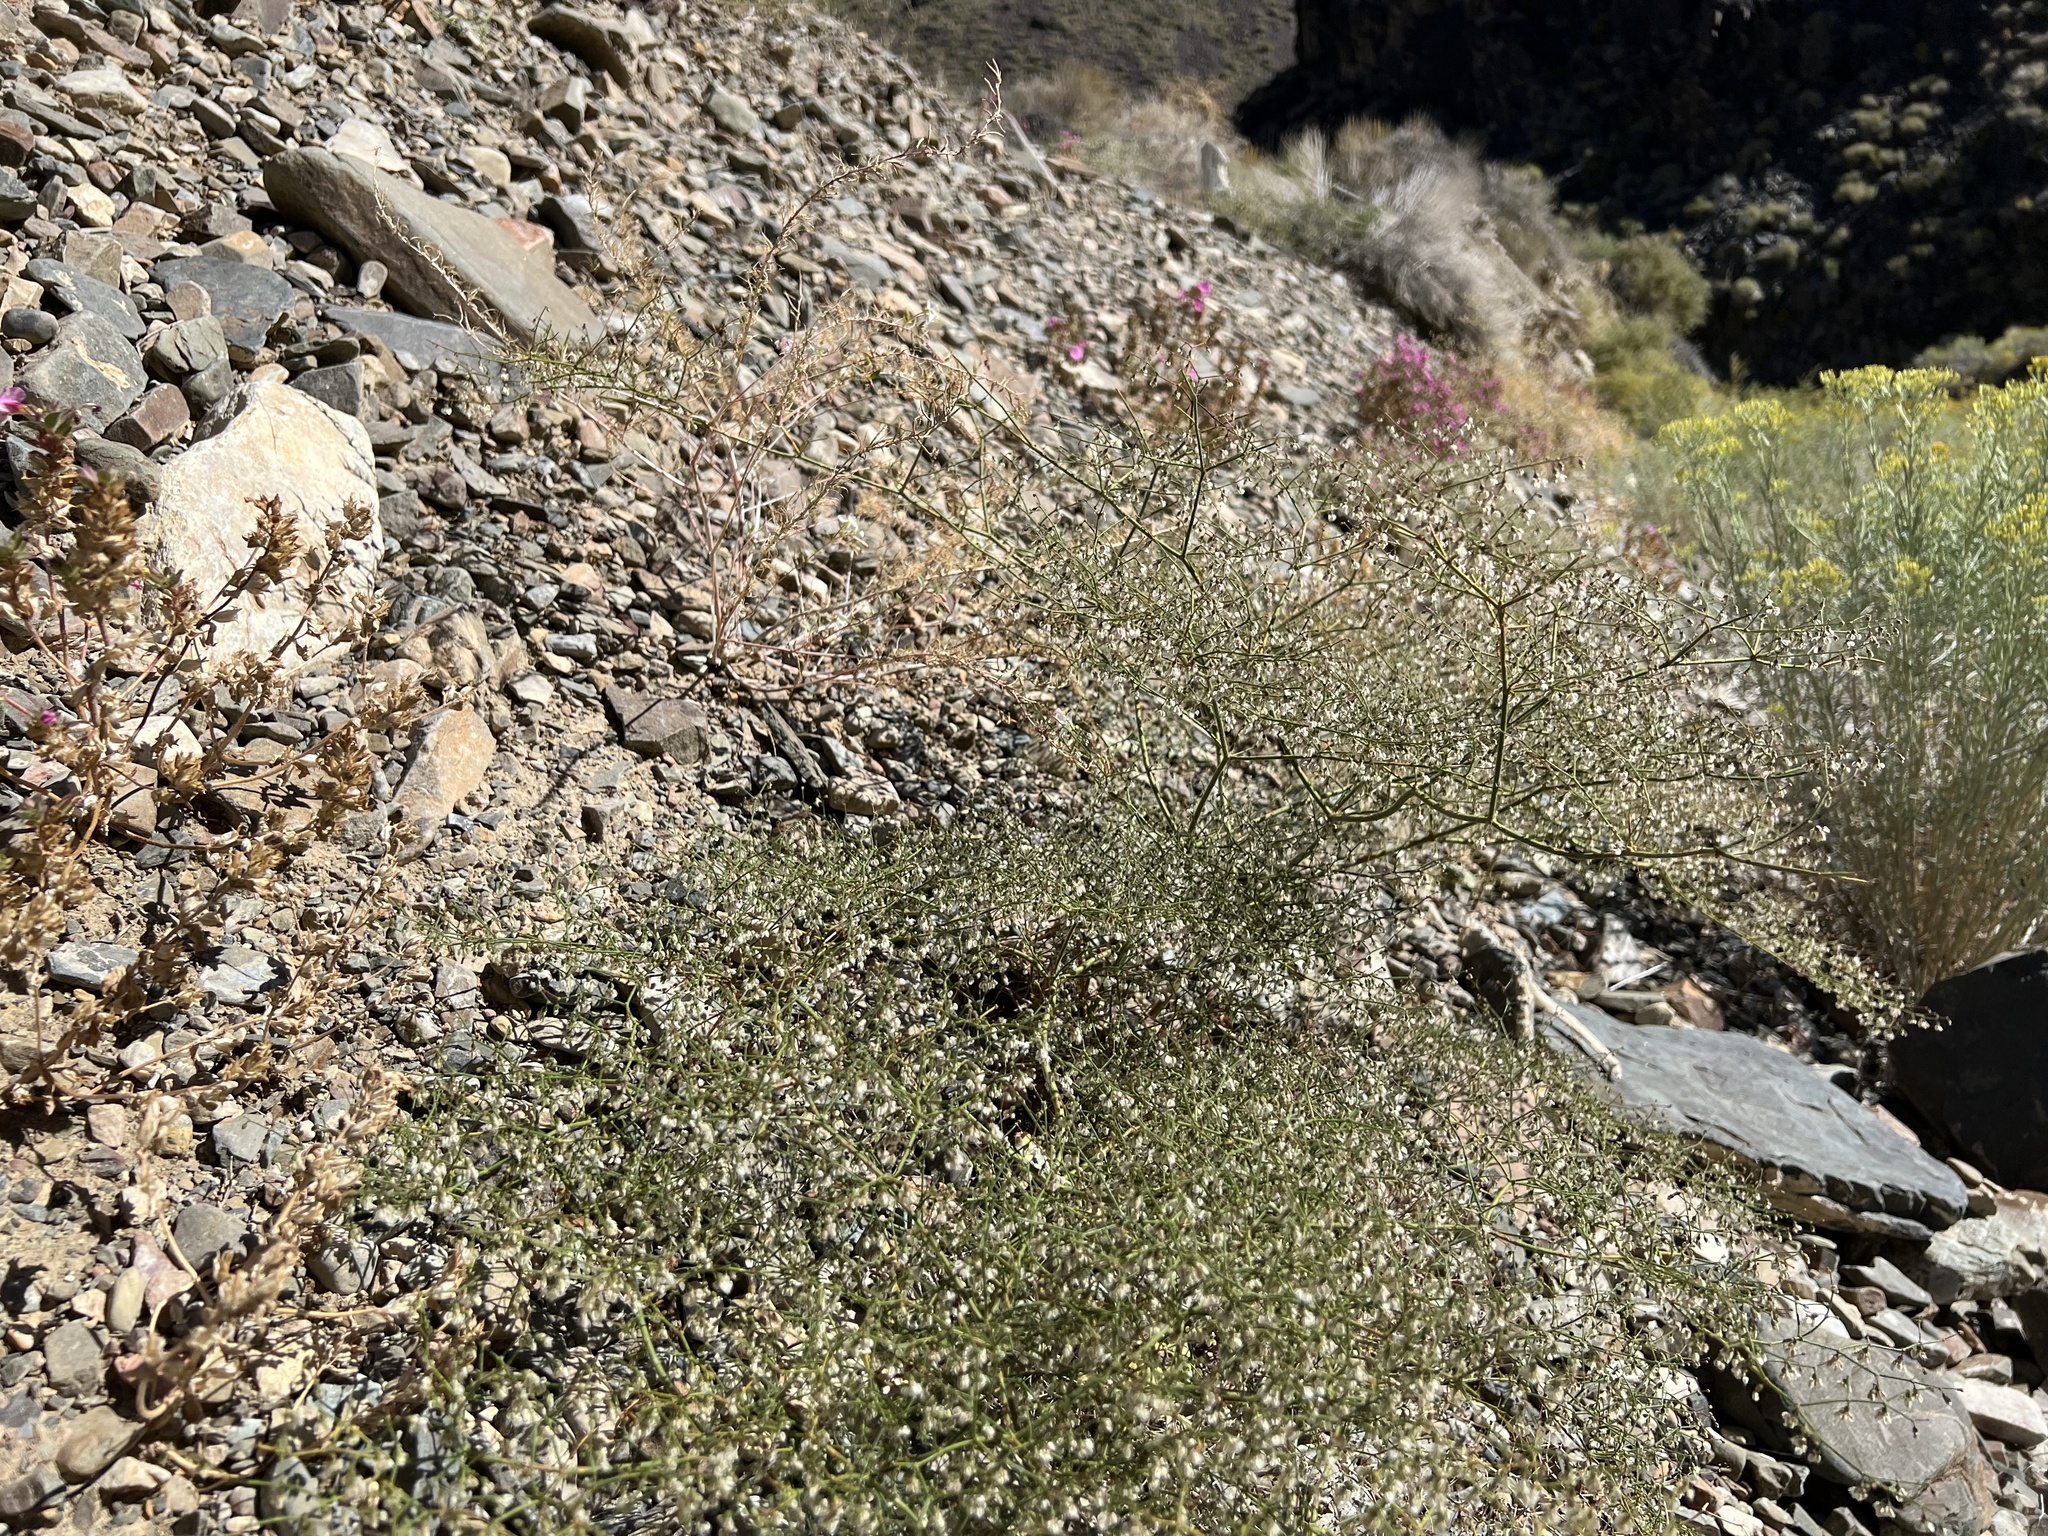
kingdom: Plantae
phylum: Tracheophyta
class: Magnoliopsida
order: Caryophyllales
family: Polygonaceae
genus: Eriogonum
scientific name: Eriogonum brachypodum
